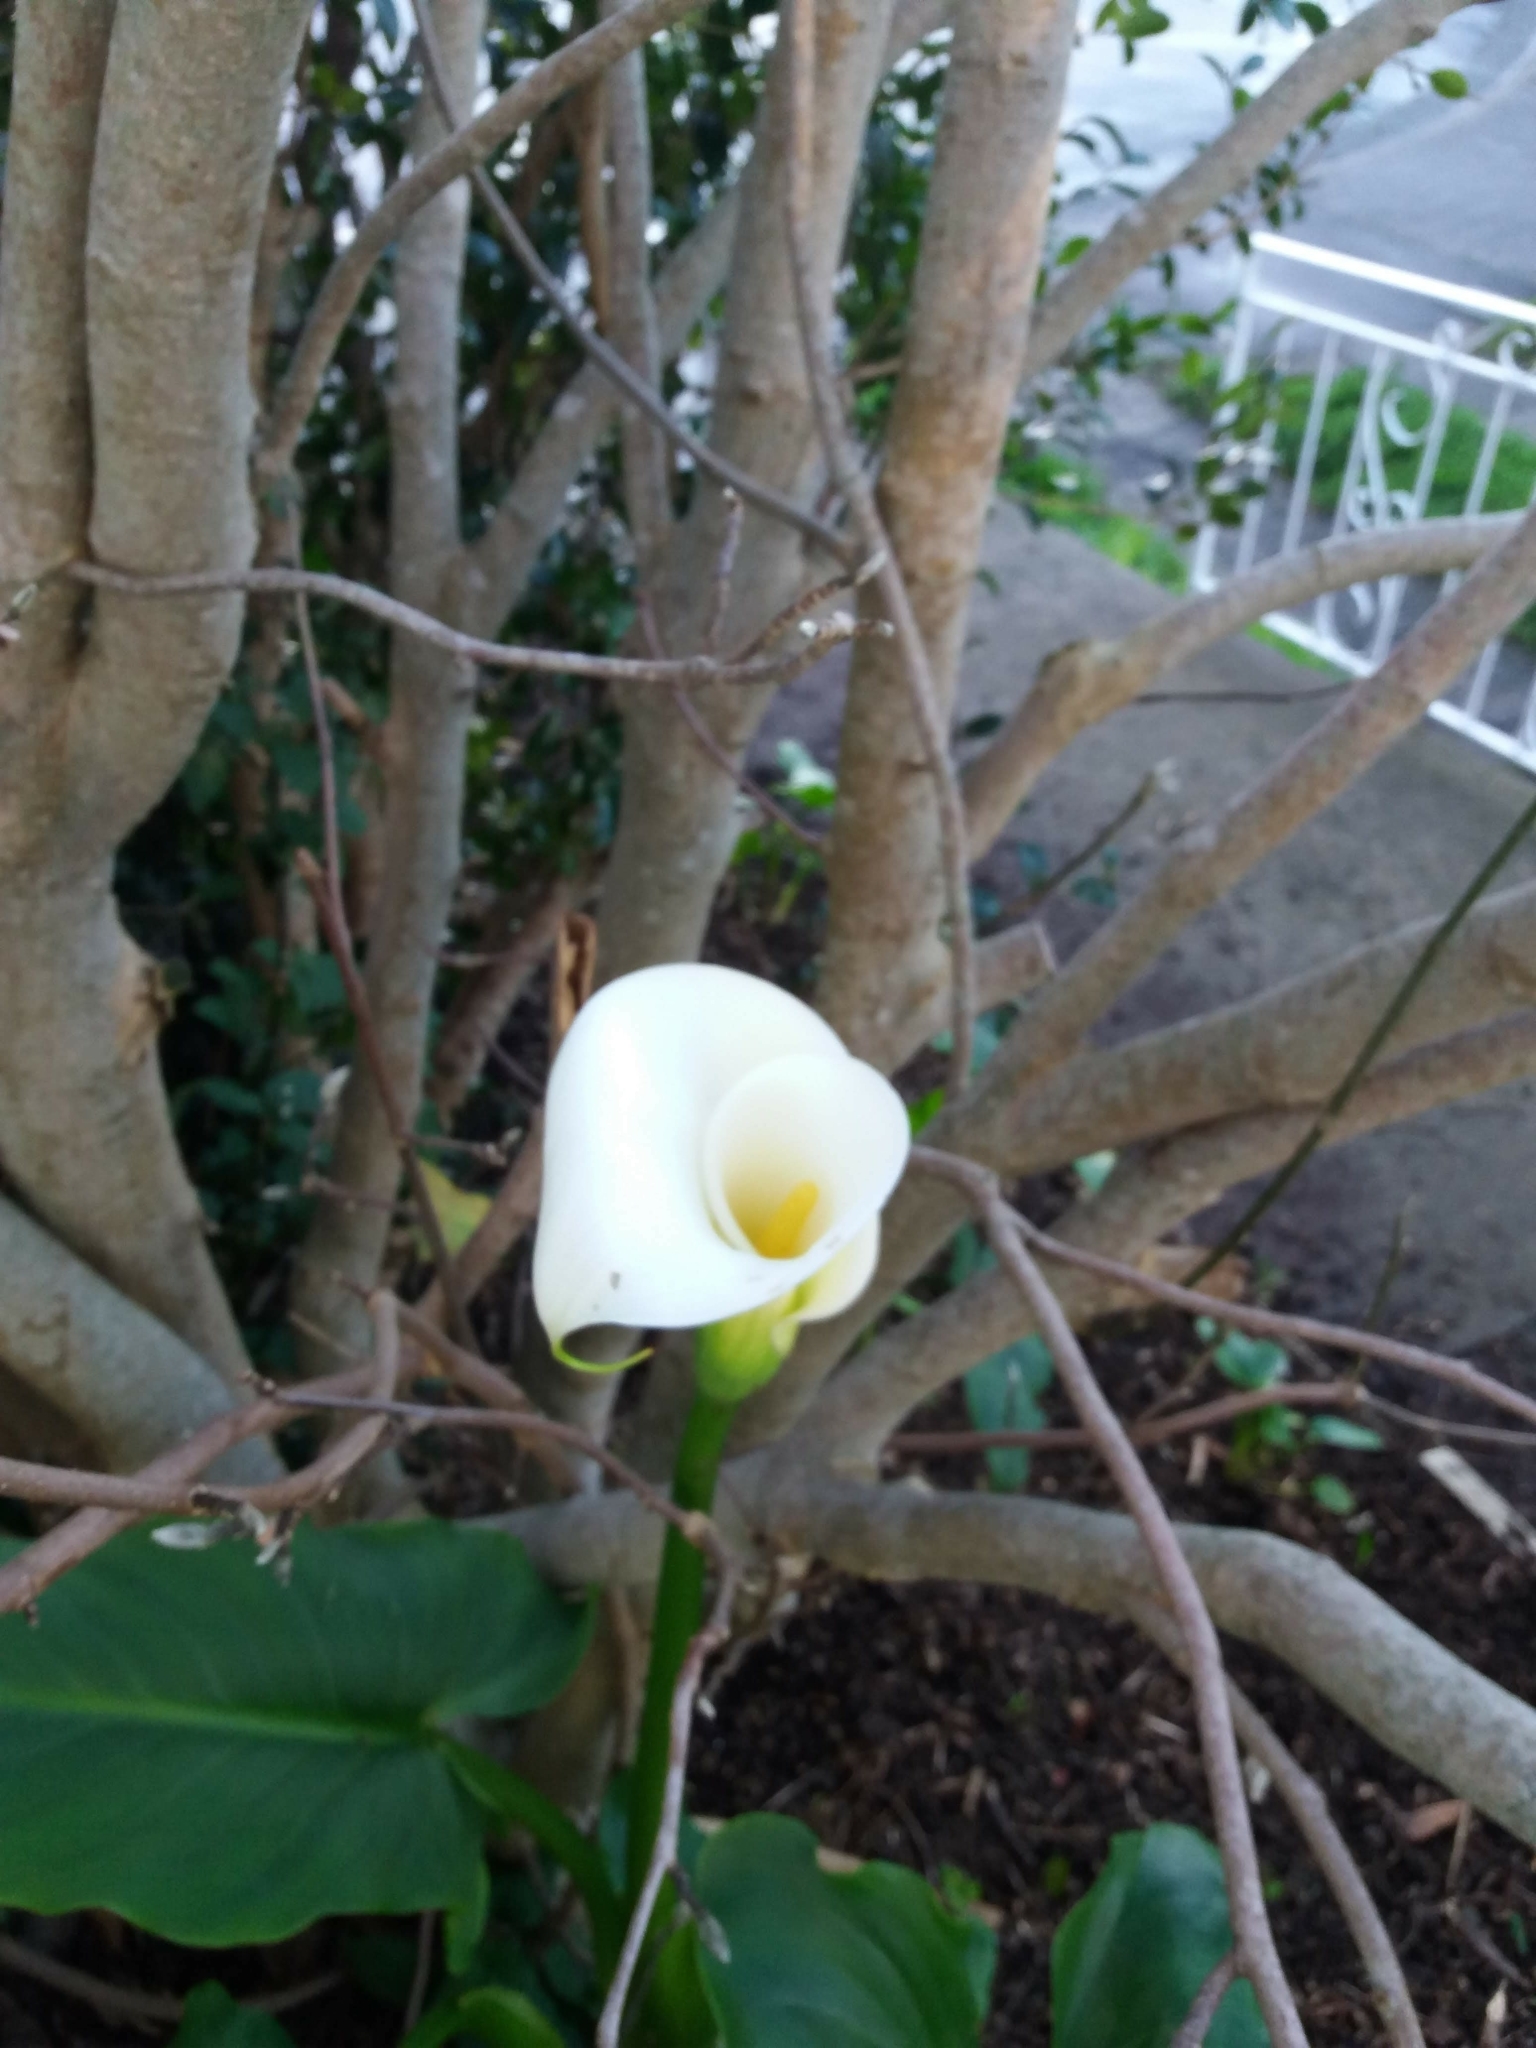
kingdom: Plantae
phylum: Tracheophyta
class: Liliopsida
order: Alismatales
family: Araceae
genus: Zantedeschia
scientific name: Zantedeschia aethiopica
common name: Altar-lily
